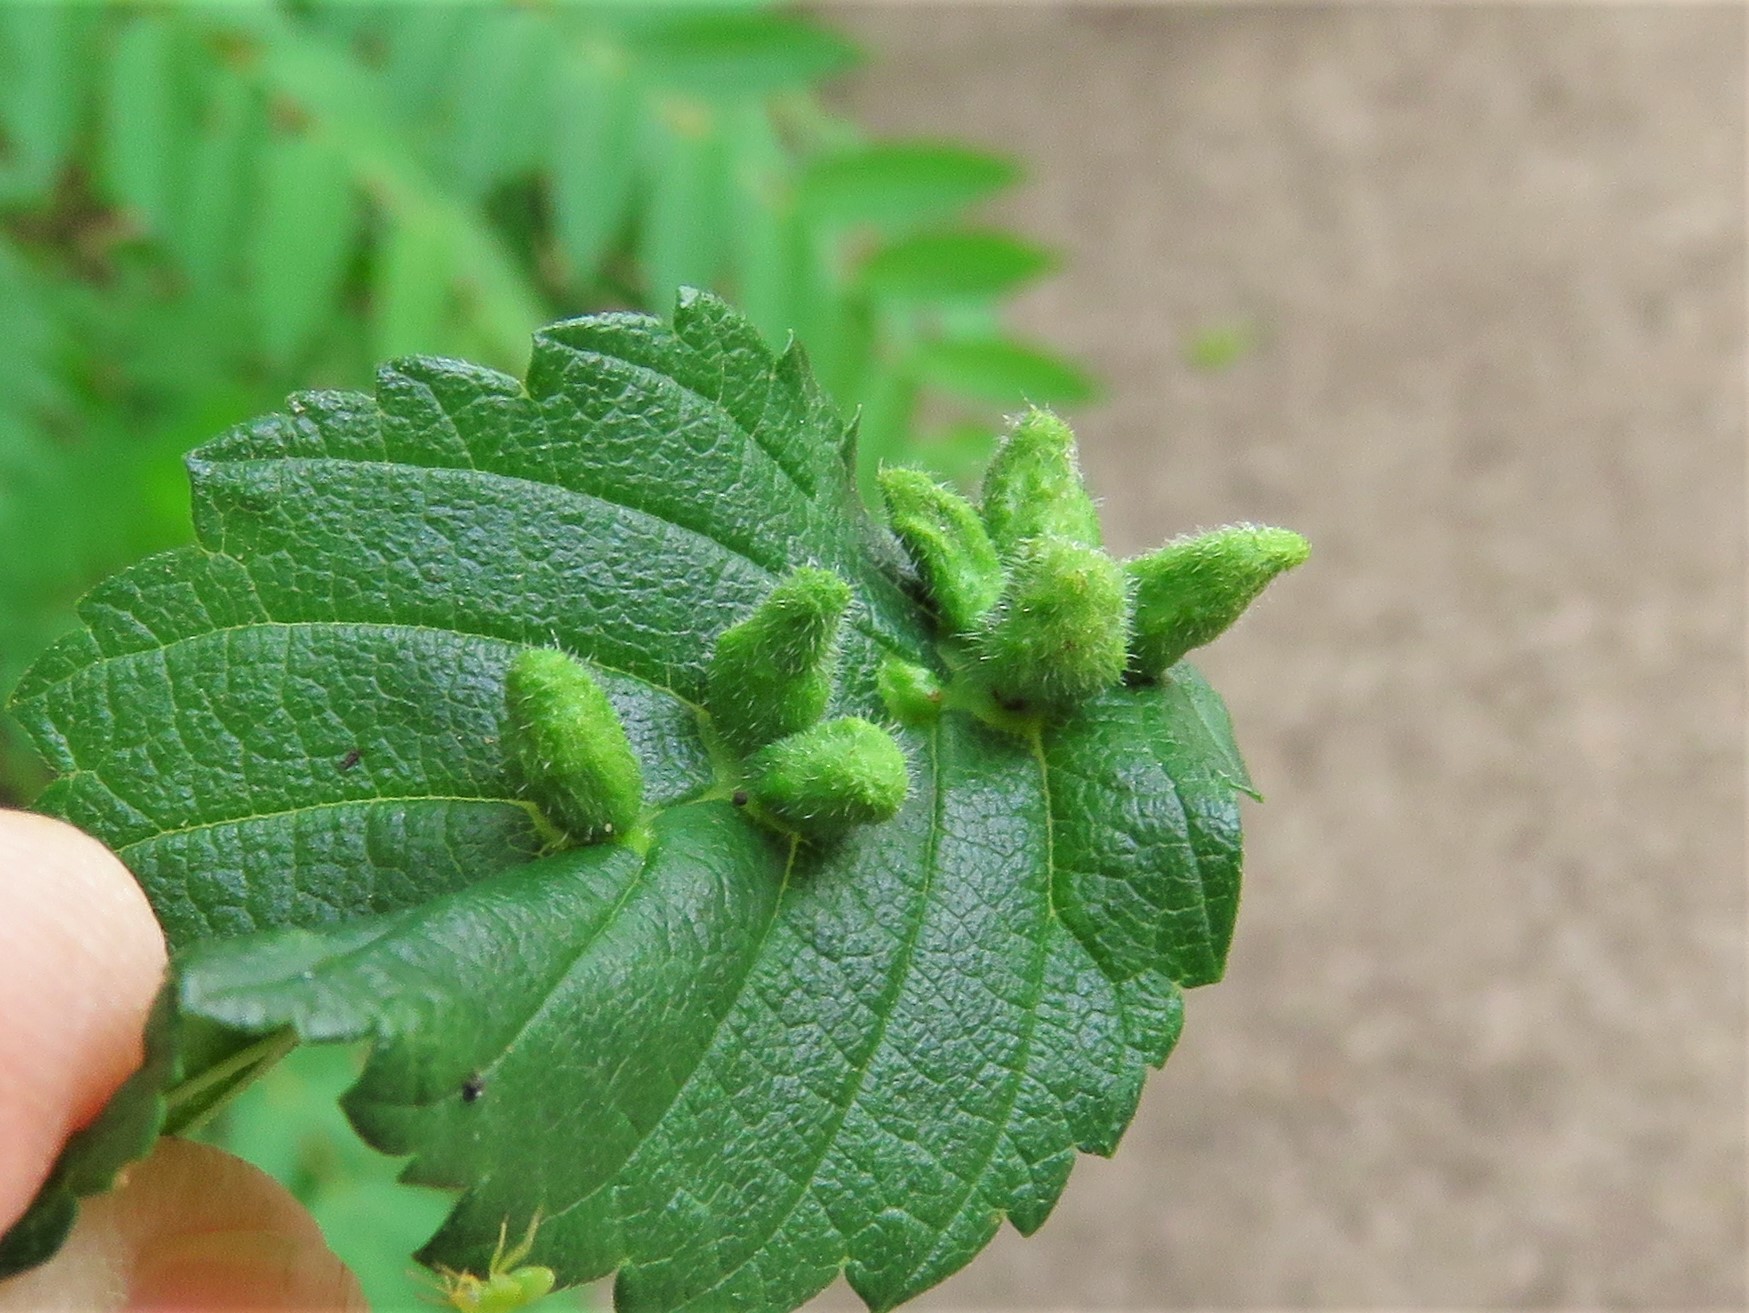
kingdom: Animalia
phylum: Arthropoda
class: Arachnida
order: Trombidiformes
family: Eriophyidae
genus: Aceria
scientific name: Aceria
